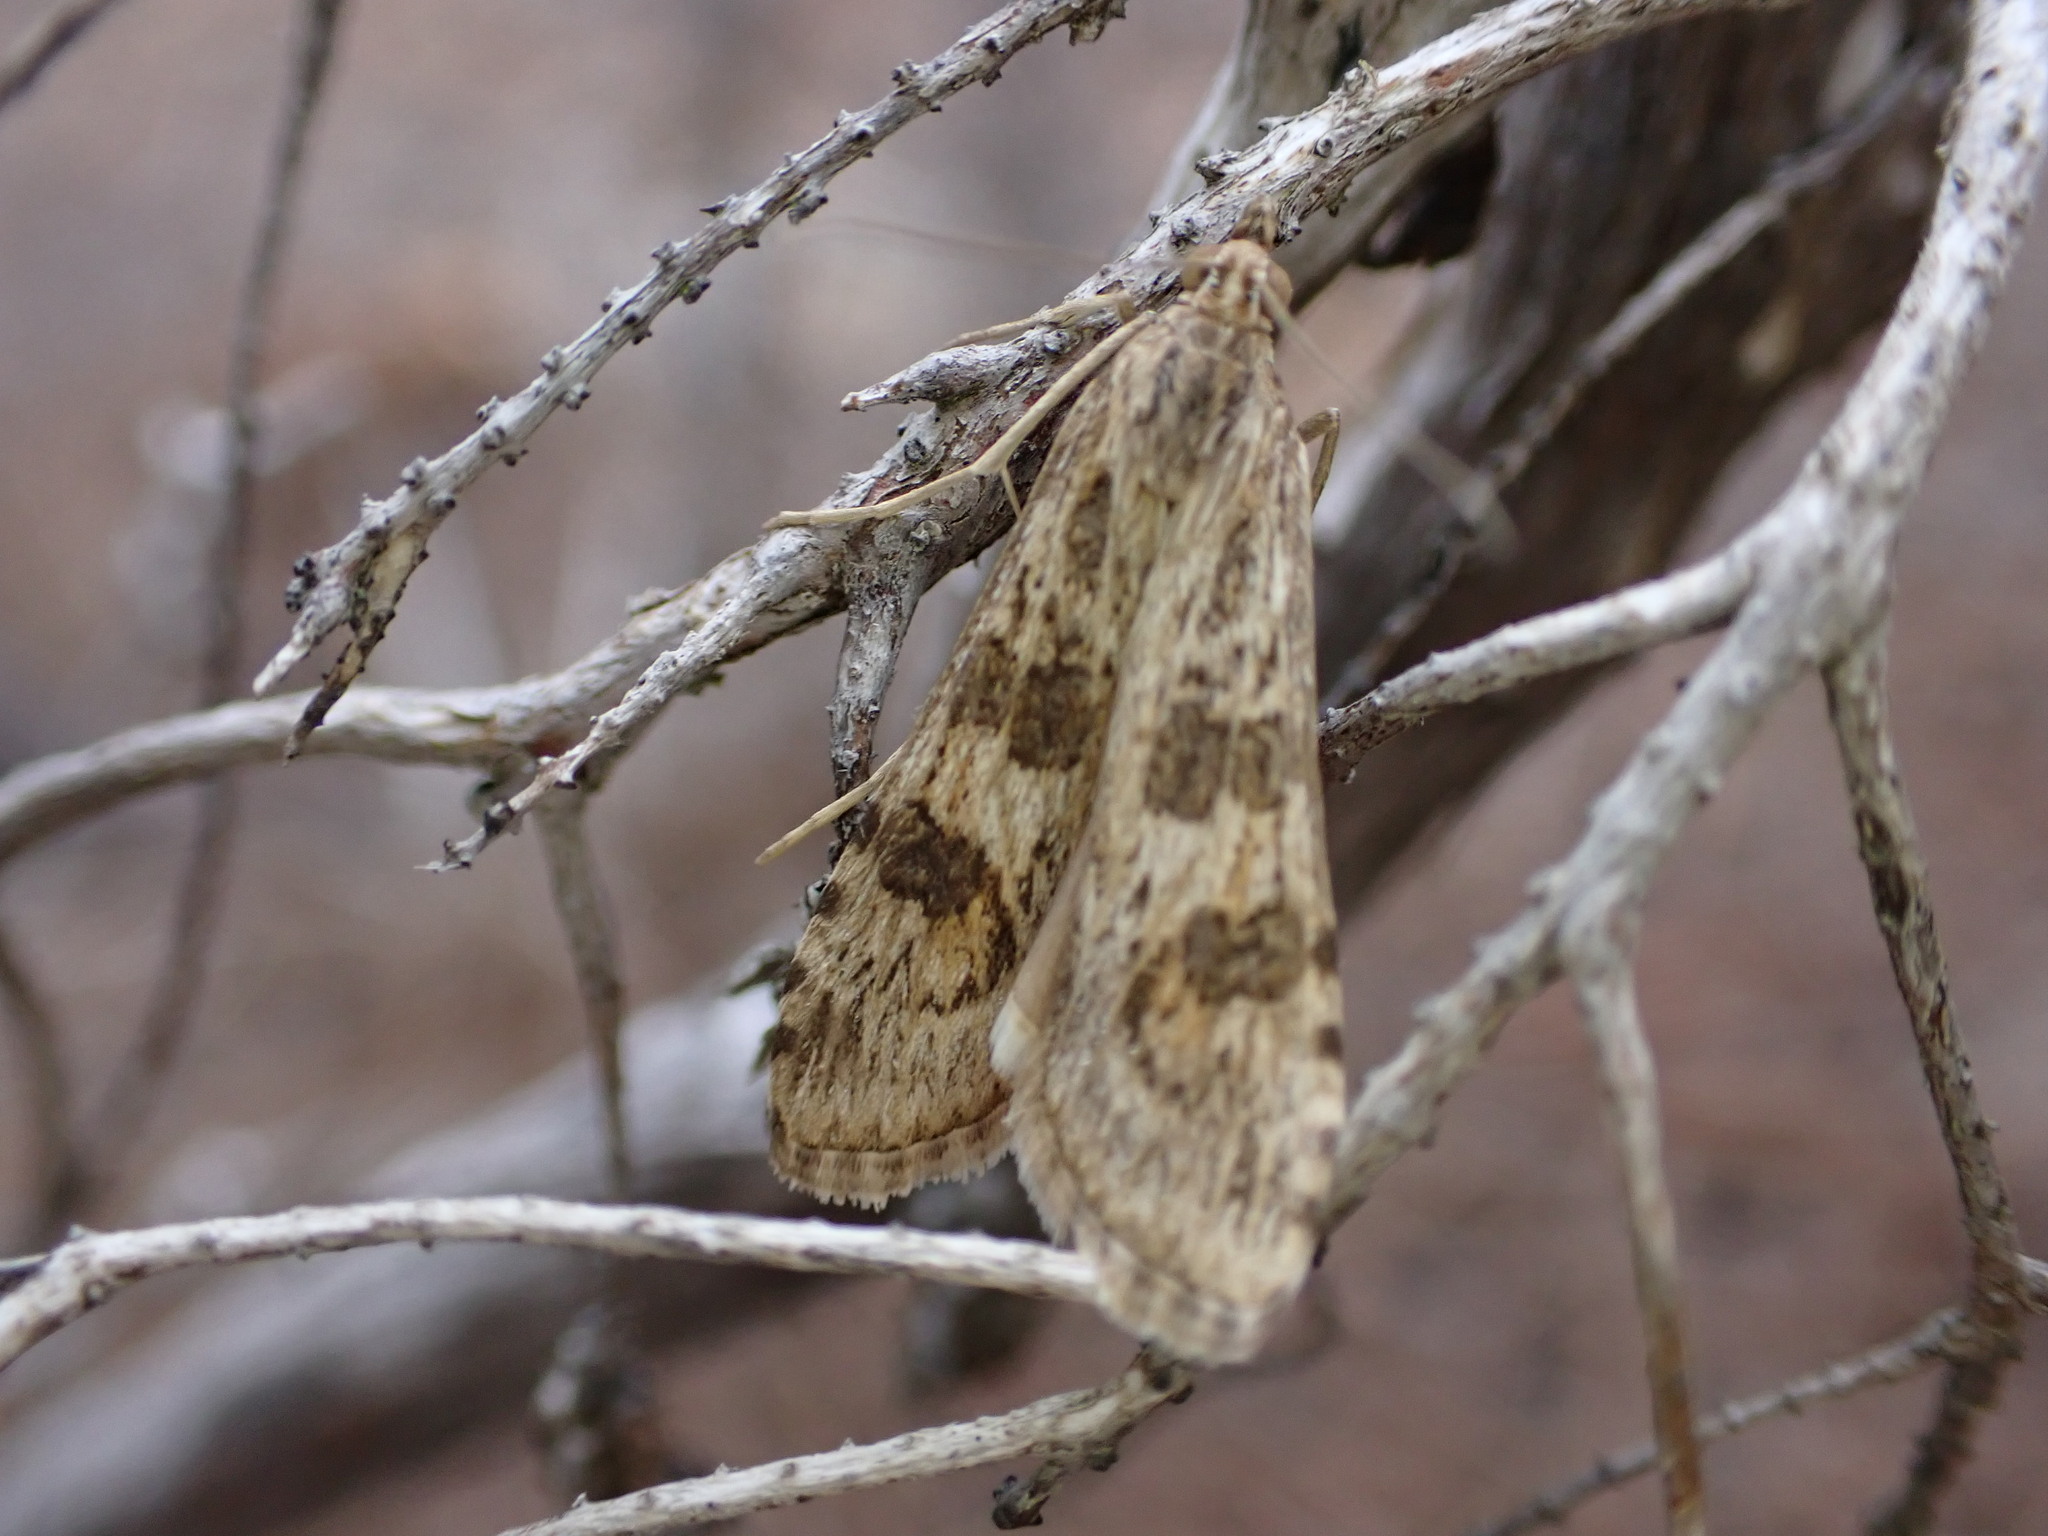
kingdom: Animalia
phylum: Arthropoda
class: Insecta
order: Lepidoptera
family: Crambidae
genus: Nomophila
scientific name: Nomophila noctuella
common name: Rush veneer
